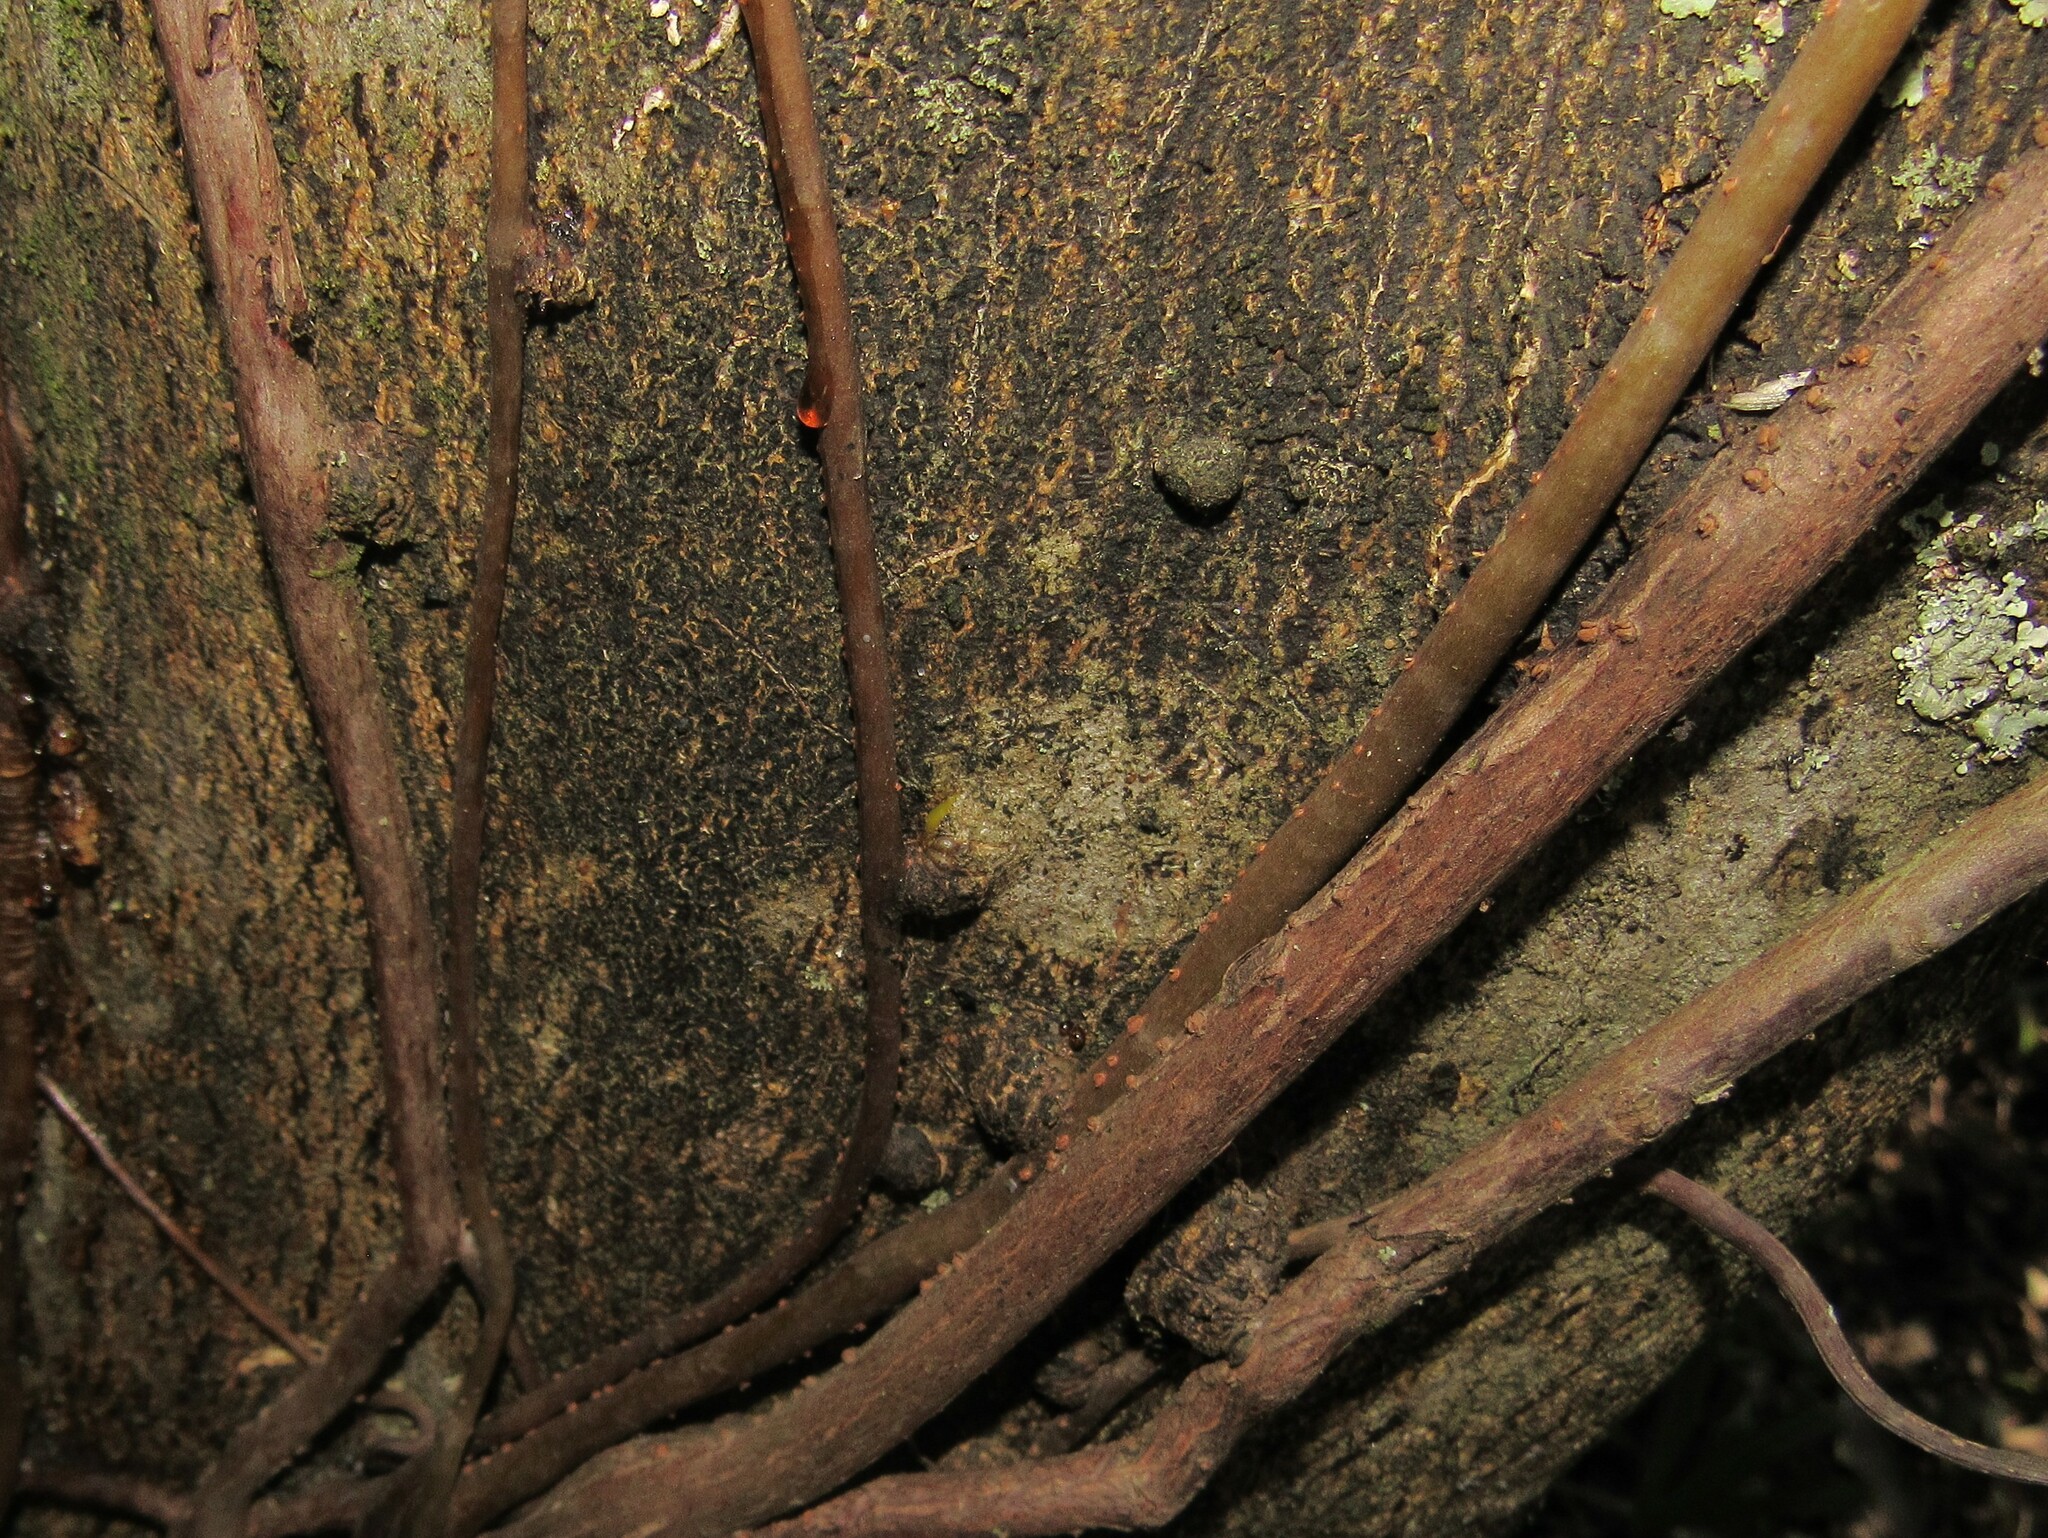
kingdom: Plantae
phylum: Tracheophyta
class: Magnoliopsida
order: Santalales
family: Loranthaceae
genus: Tripodanthus
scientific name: Tripodanthus acutifolius
